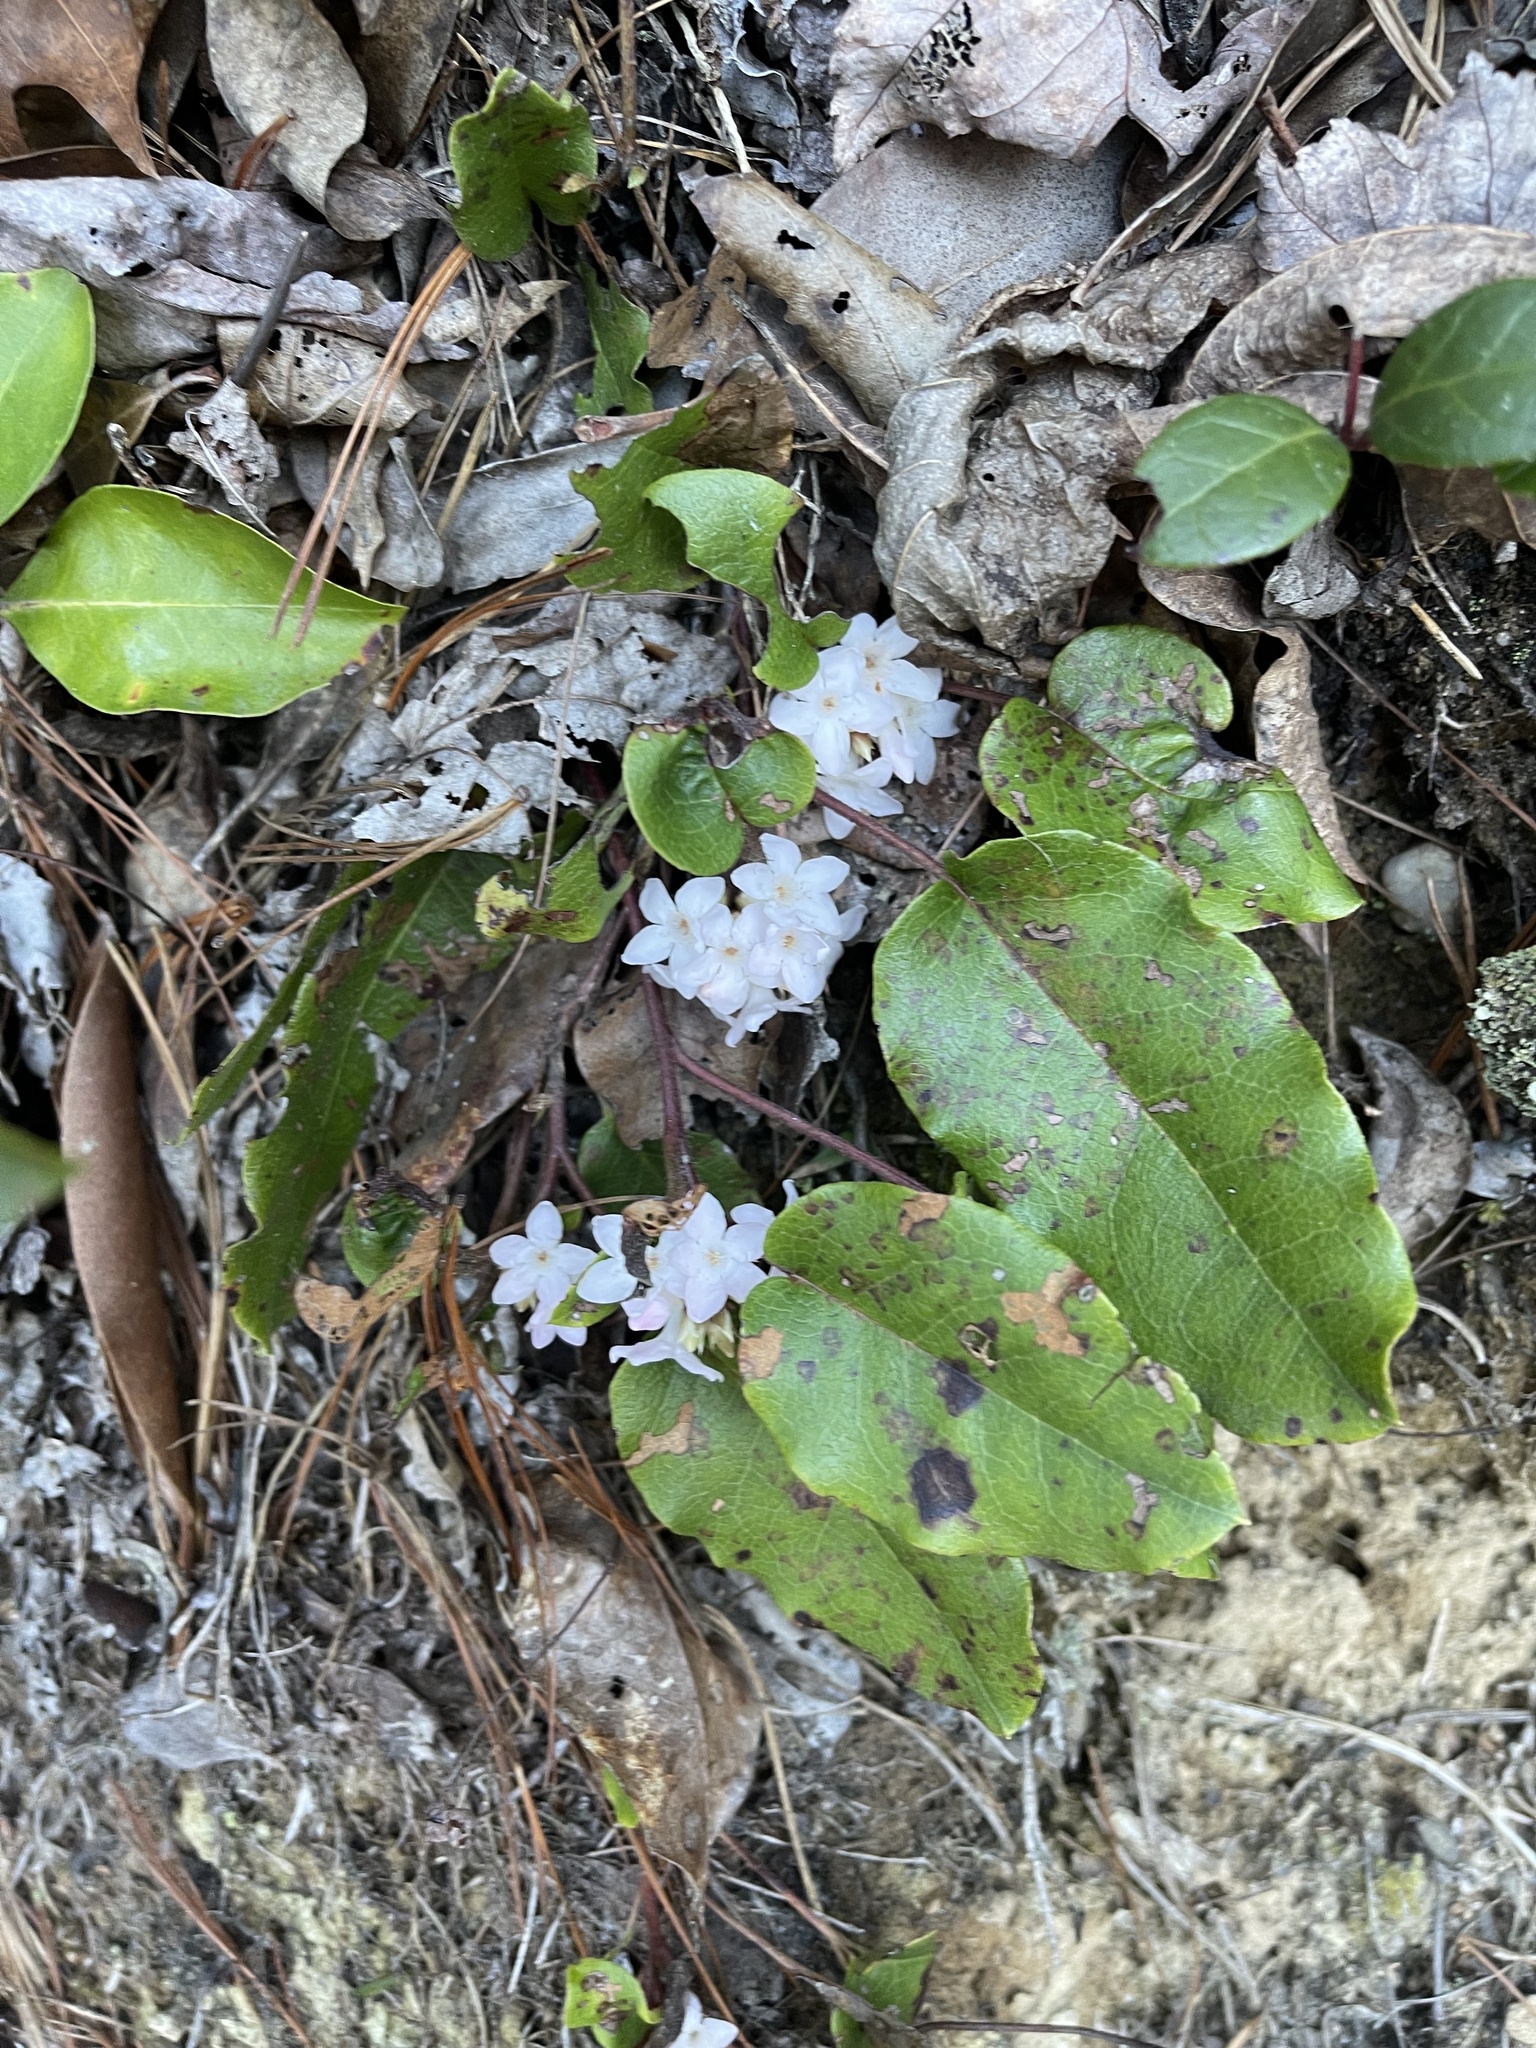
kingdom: Plantae
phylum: Tracheophyta
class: Magnoliopsida
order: Ericales
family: Ericaceae
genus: Epigaea
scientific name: Epigaea repens
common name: Gravelroot
